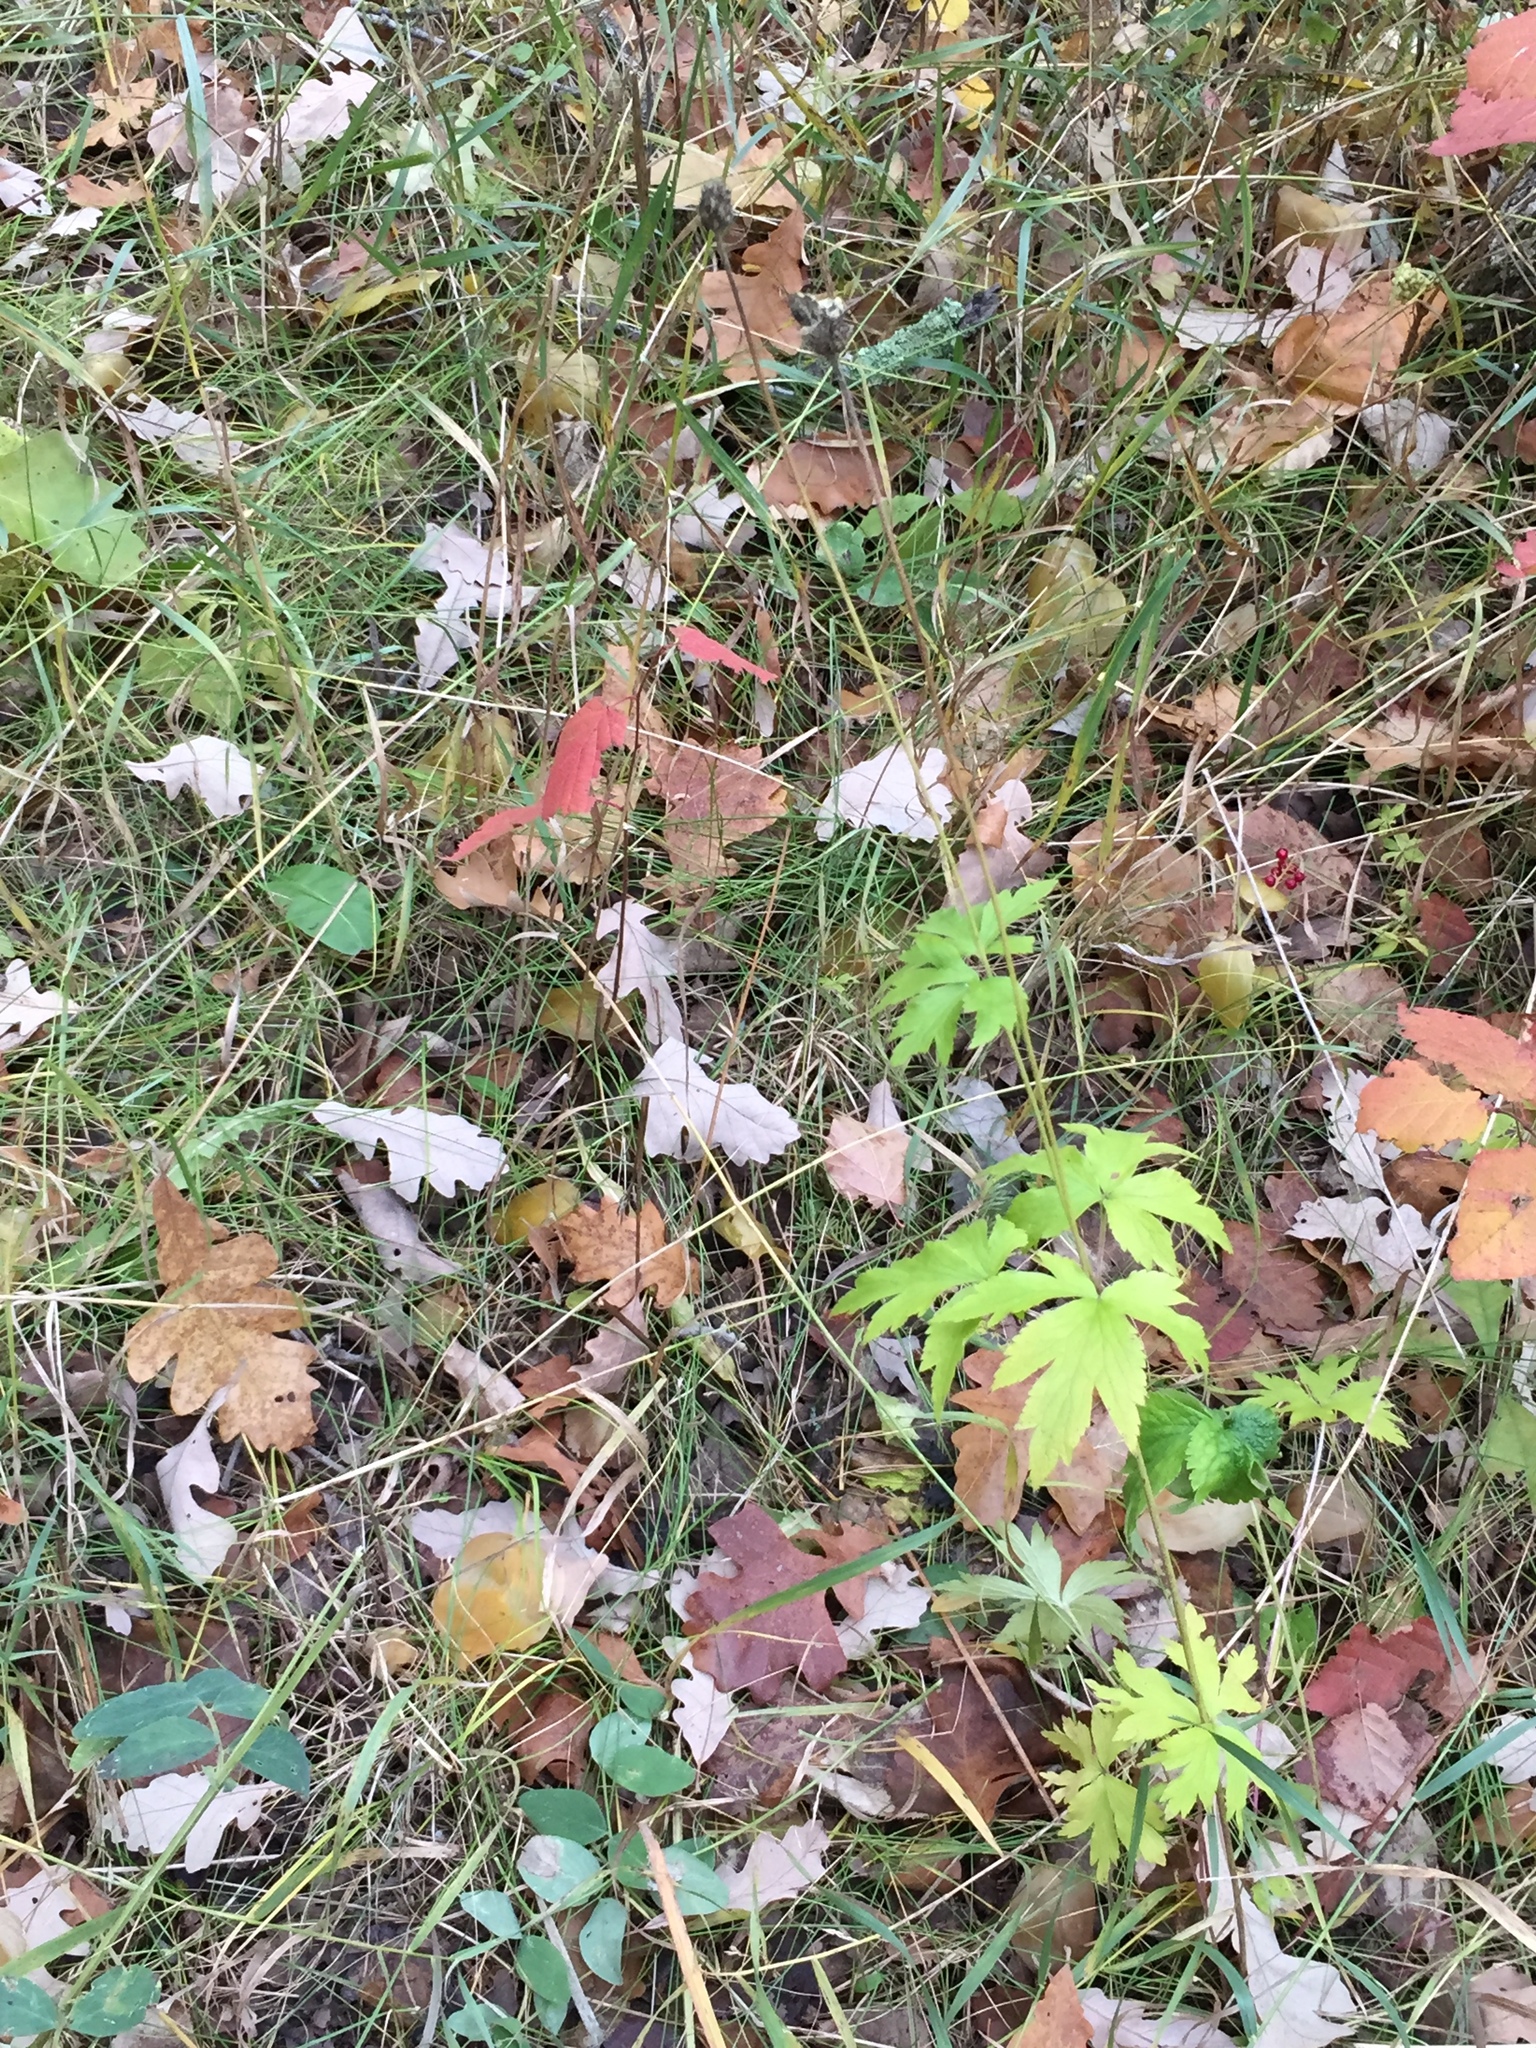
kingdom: Plantae
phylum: Tracheophyta
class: Magnoliopsida
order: Ranunculales
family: Ranunculaceae
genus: Anemone
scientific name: Anemone virginiana
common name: Tall anemone
